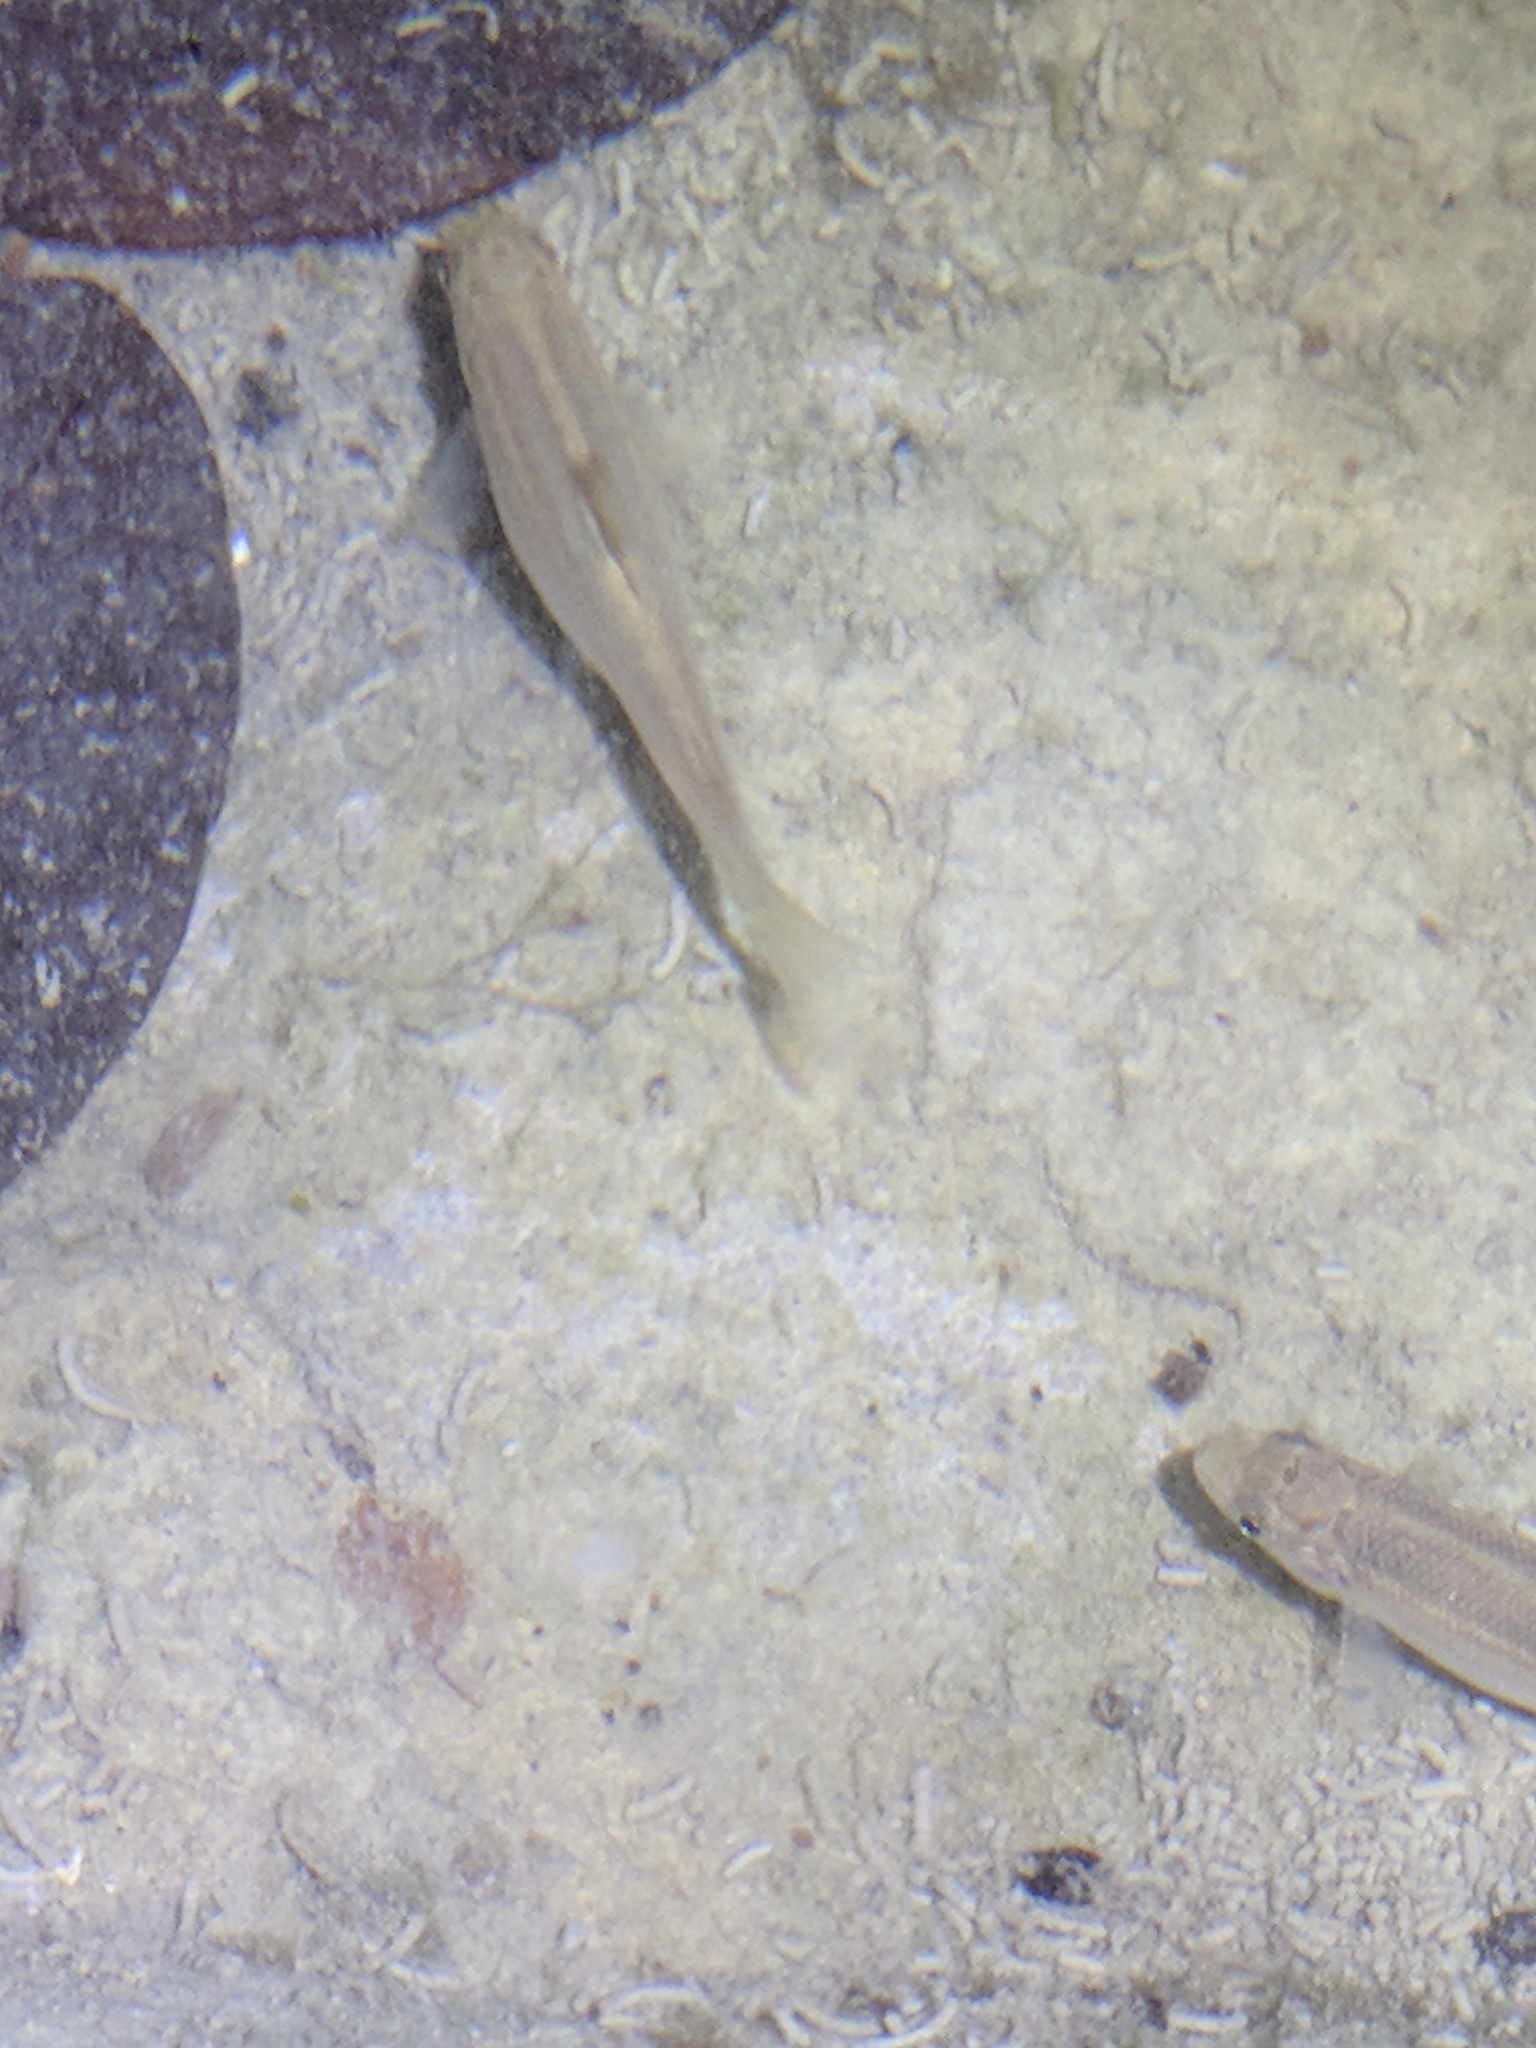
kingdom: Animalia
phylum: Chordata
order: Cypriniformes
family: Cyprinidae
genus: Campostoma
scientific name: Campostoma anomalum
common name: Central stoneroller
